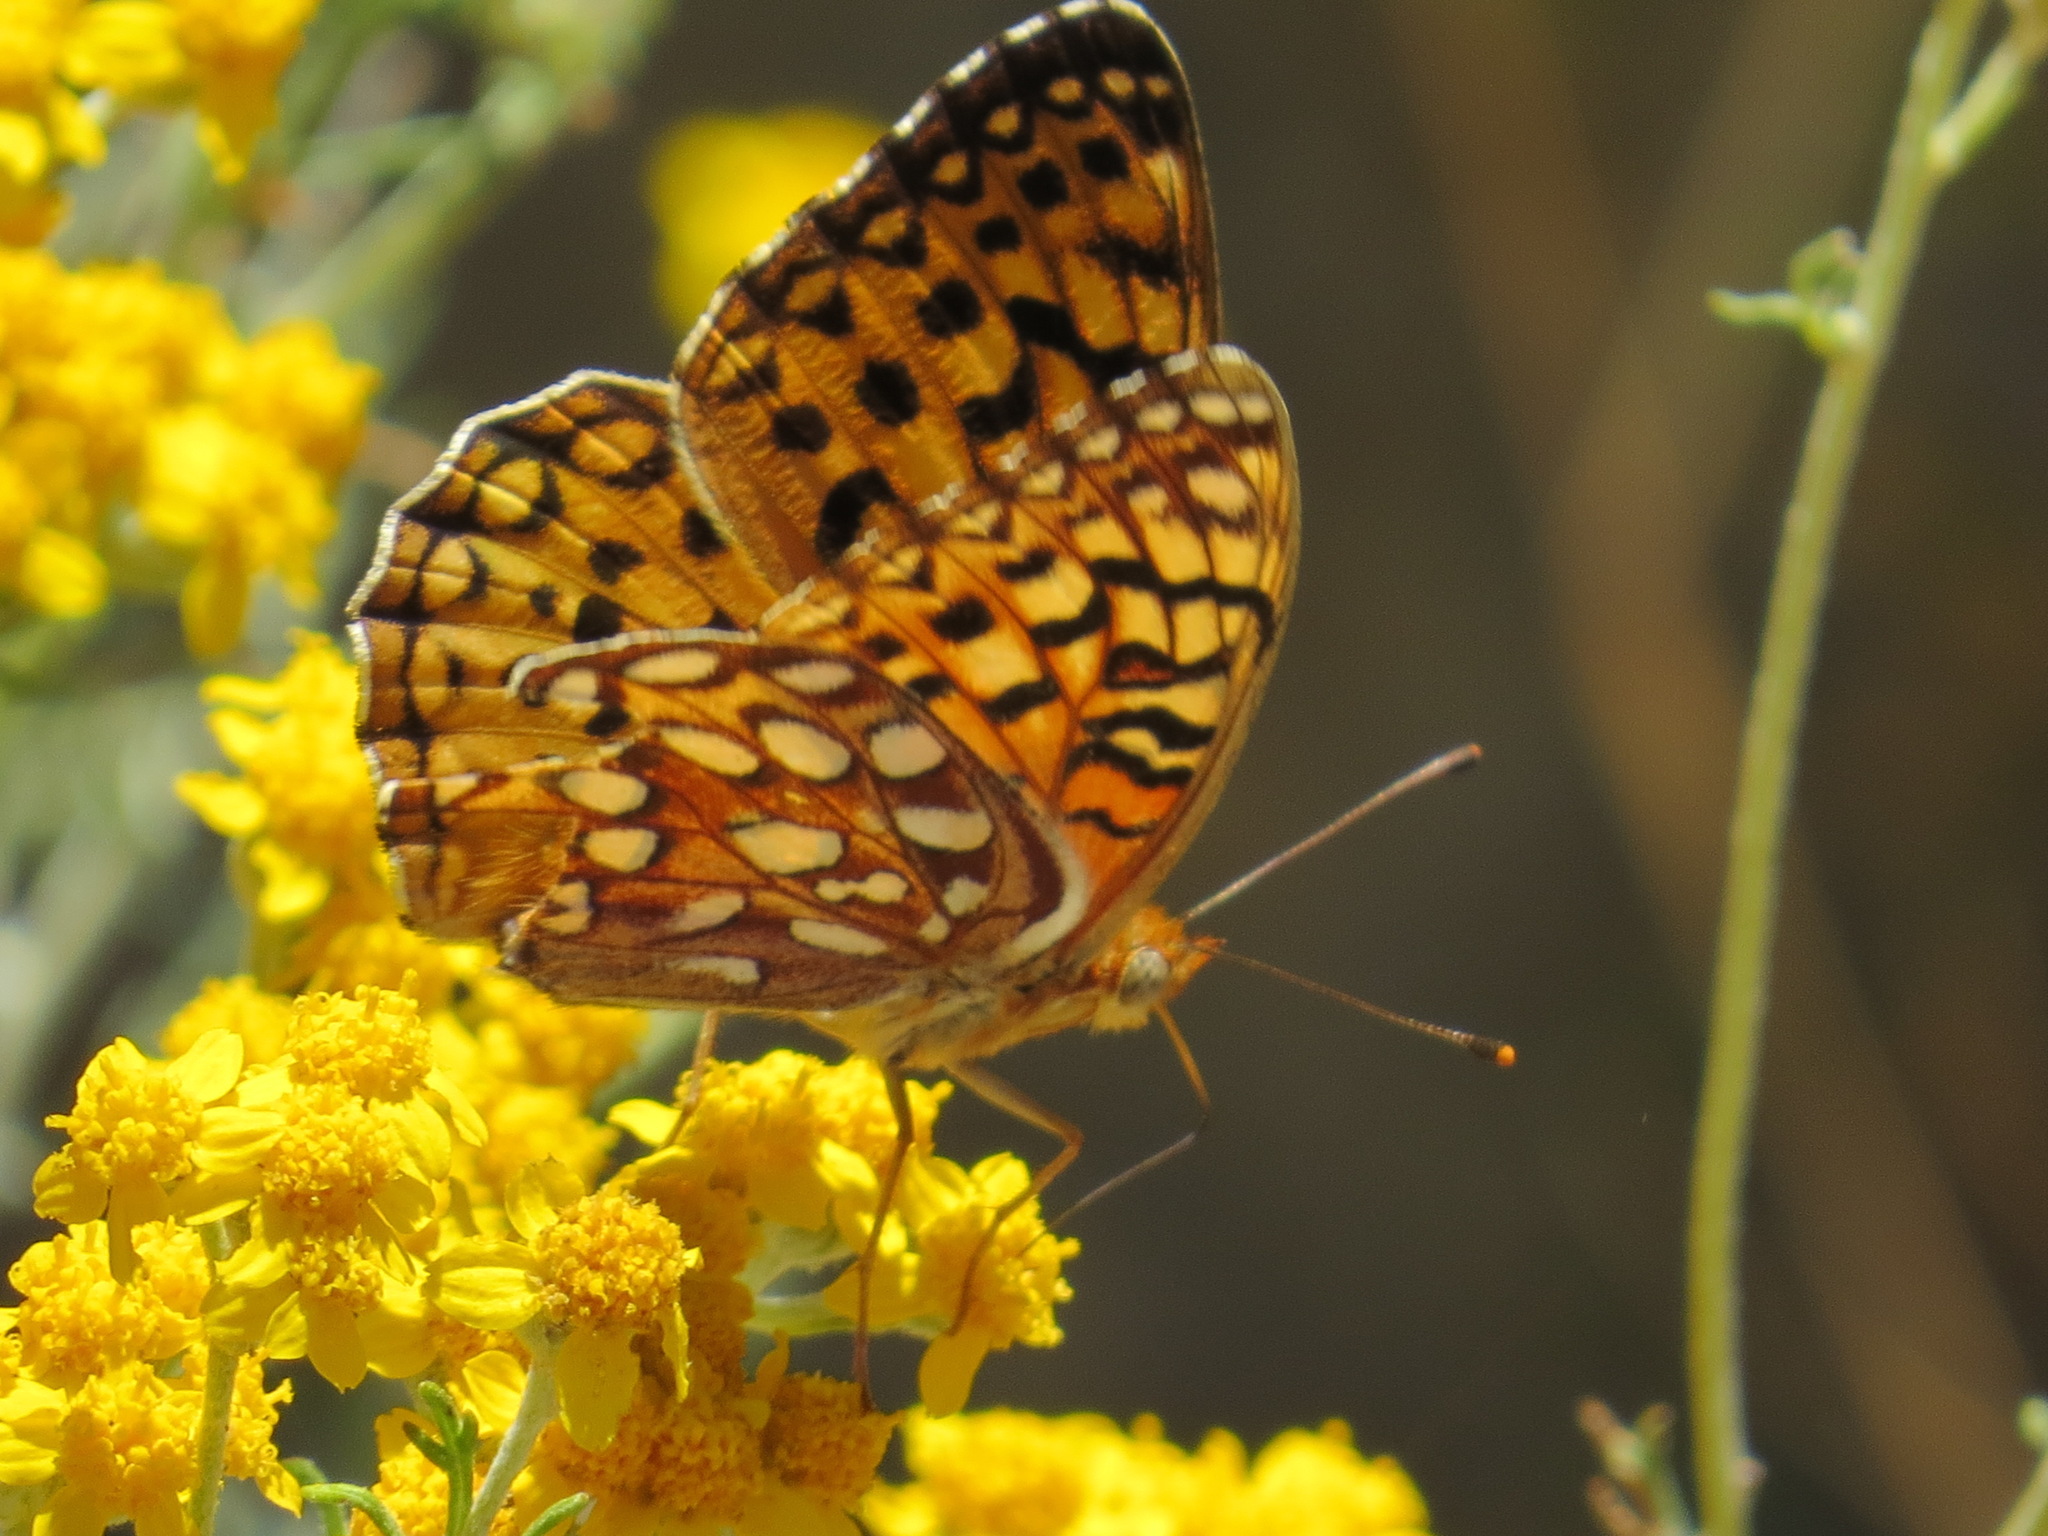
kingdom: Animalia
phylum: Arthropoda
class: Insecta
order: Lepidoptera
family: Nymphalidae
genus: Argynnis
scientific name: Argynnis coronis
